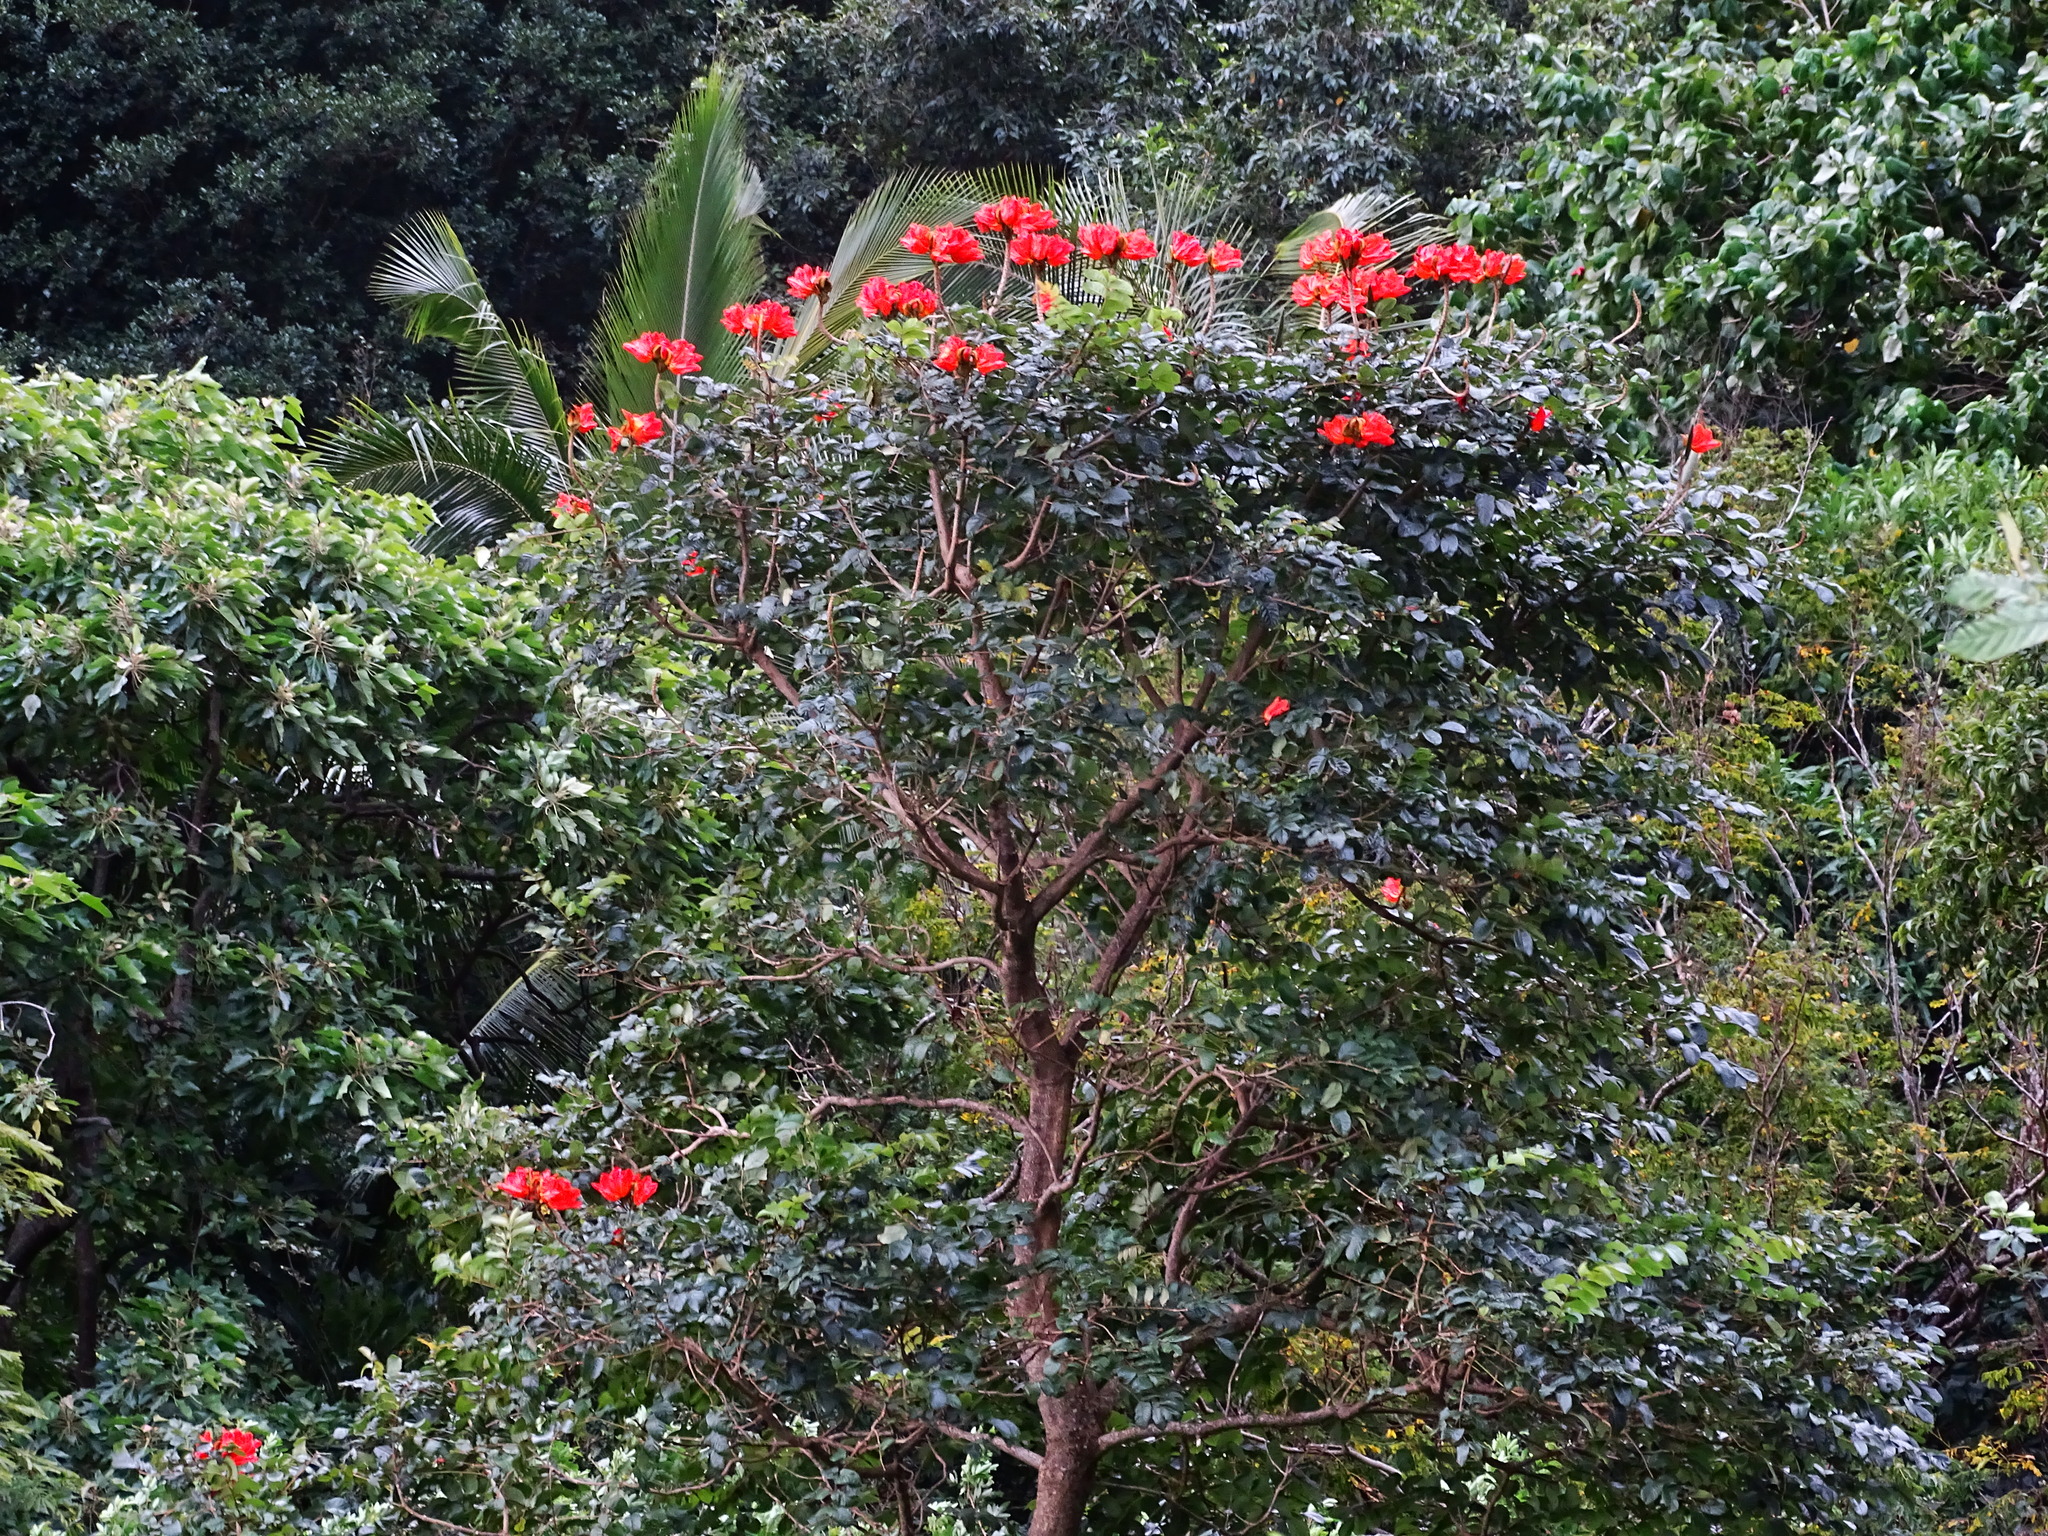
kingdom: Plantae
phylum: Tracheophyta
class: Magnoliopsida
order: Lamiales
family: Bignoniaceae
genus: Spathodea
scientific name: Spathodea campanulata
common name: African tuliptree
